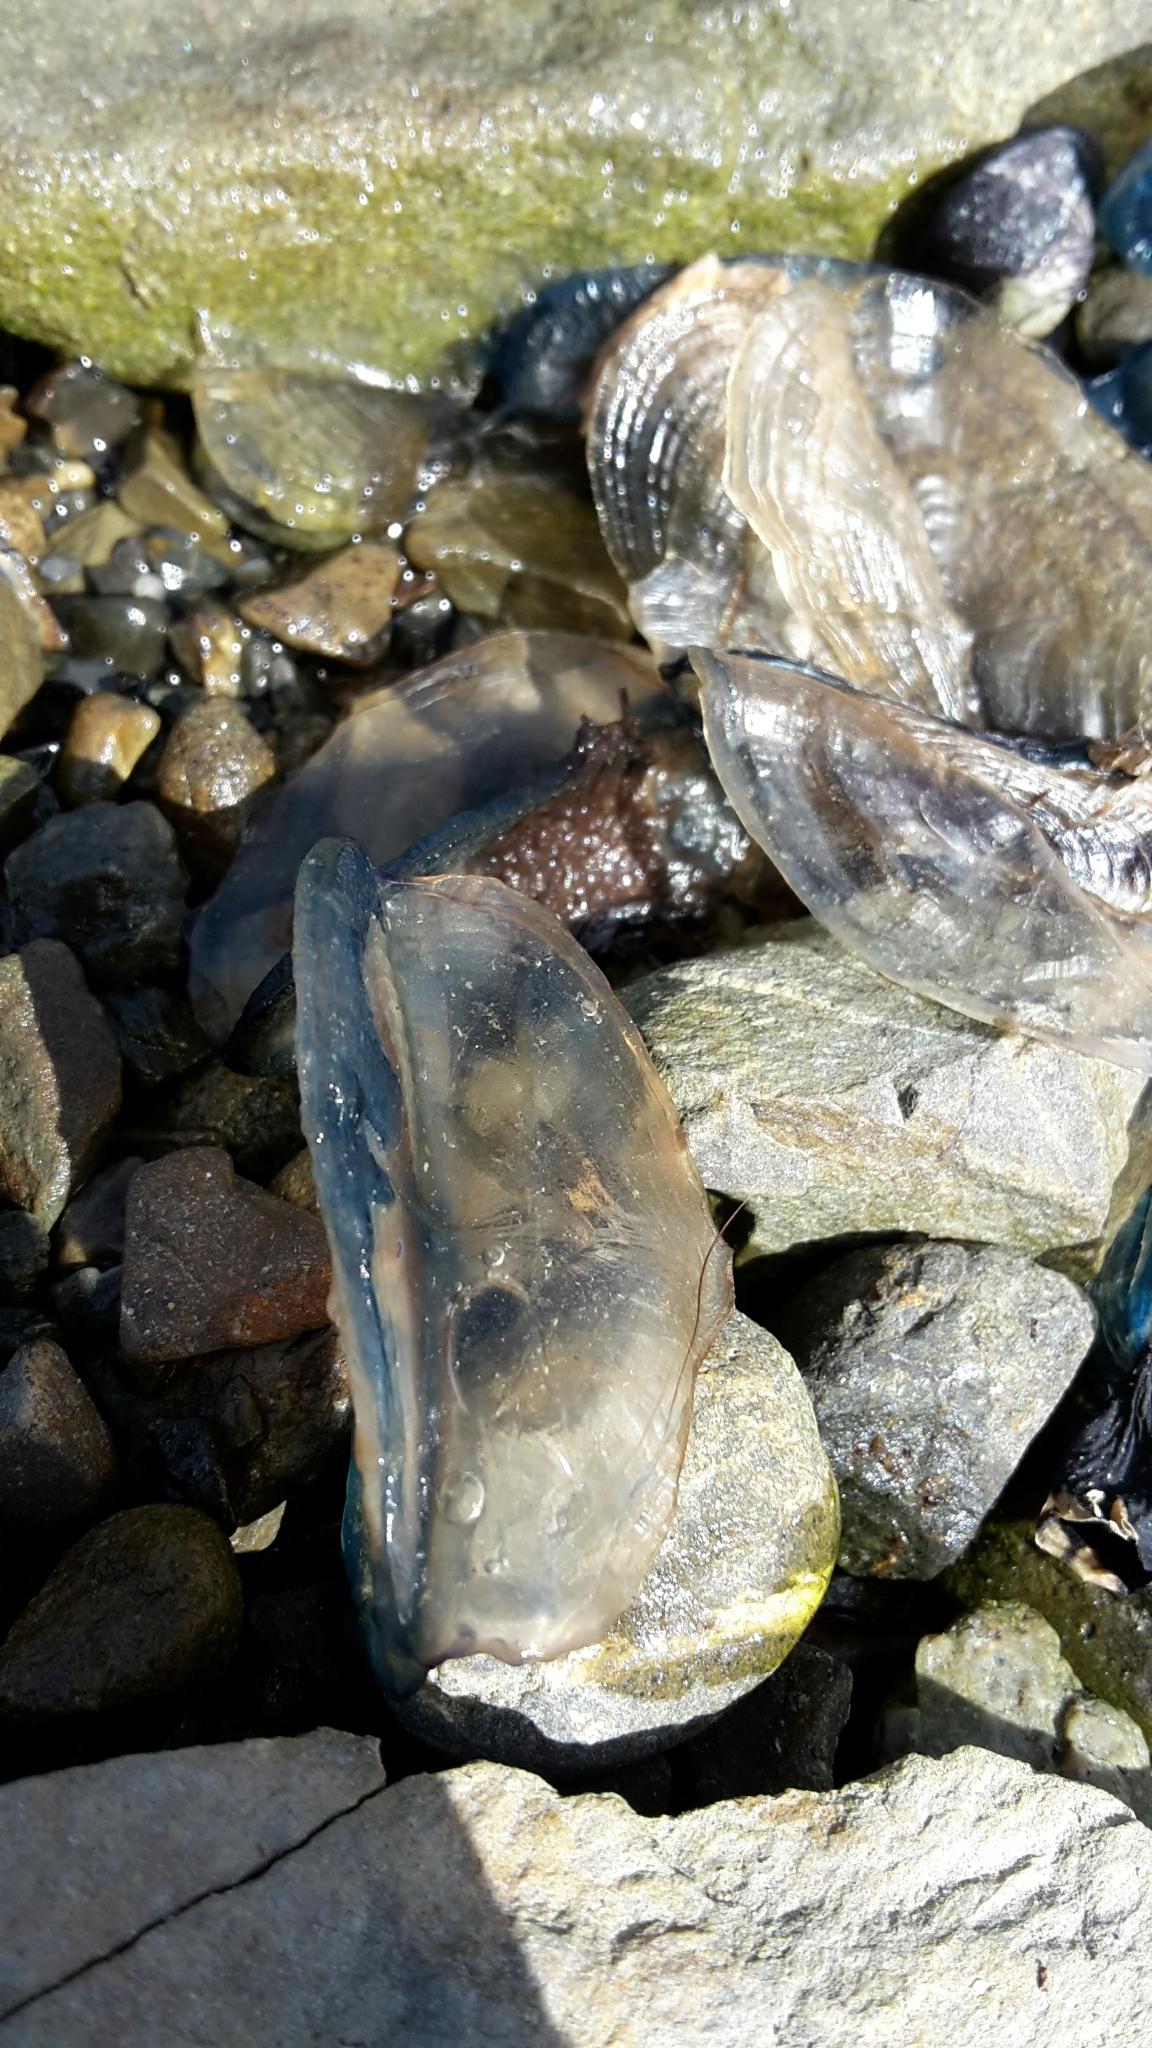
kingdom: Animalia
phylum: Cnidaria
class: Hydrozoa
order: Anthoathecata
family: Porpitidae
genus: Velella
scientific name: Velella velella
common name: By-the-wind-sailor
